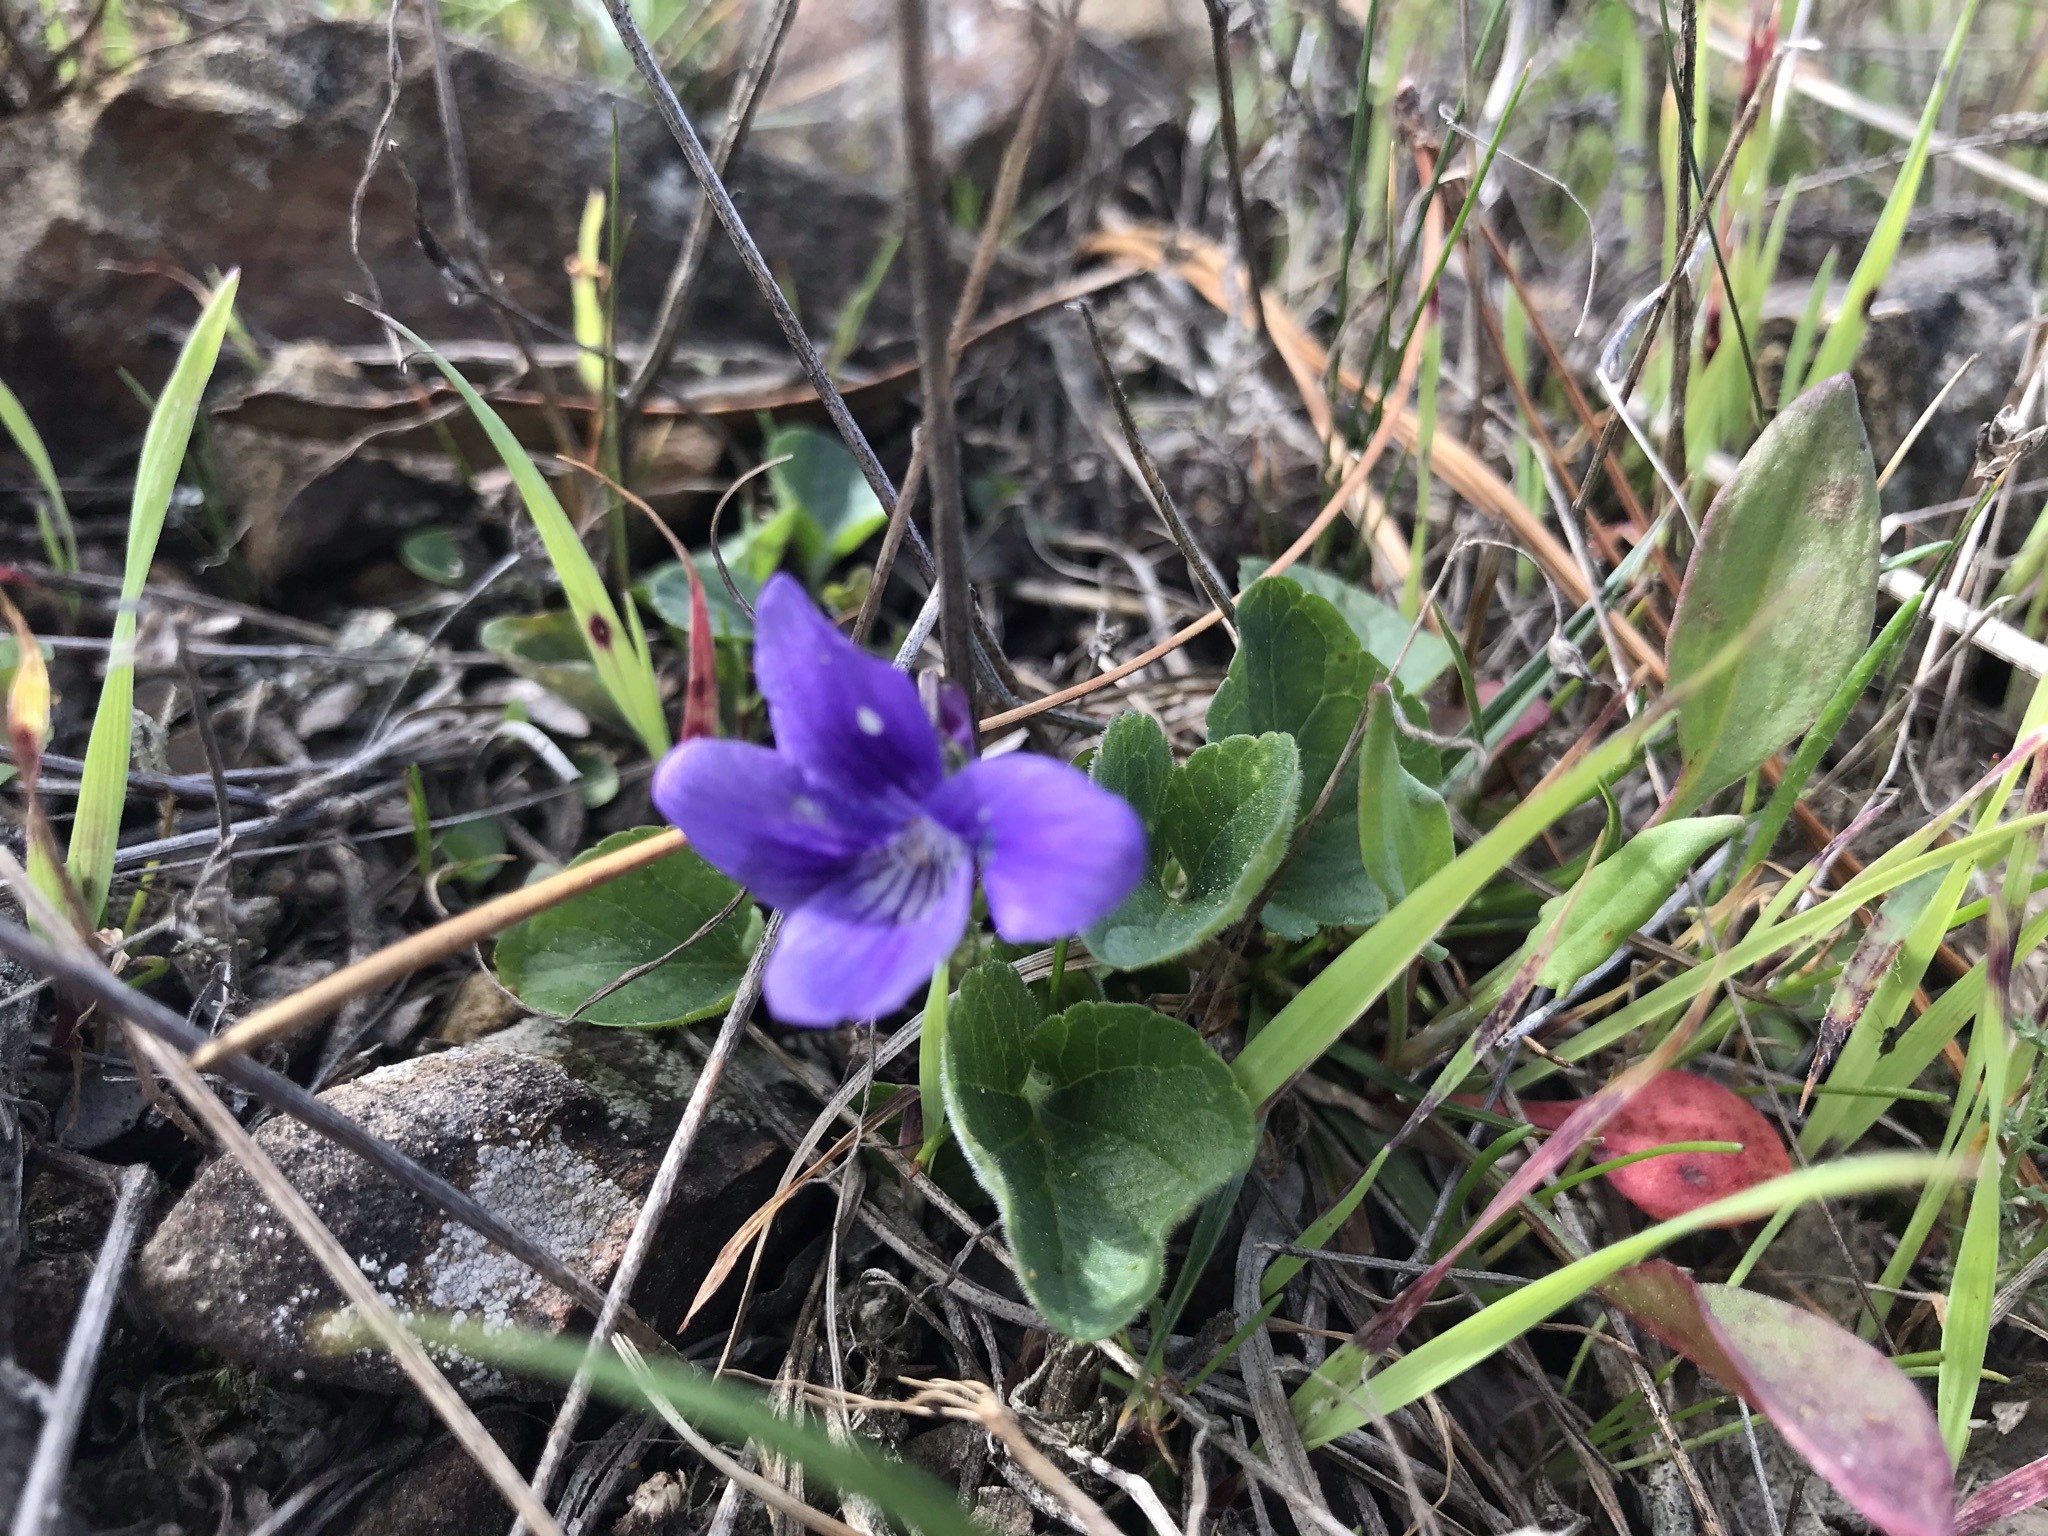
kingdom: Plantae
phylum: Tracheophyta
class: Magnoliopsida
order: Malpighiales
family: Violaceae
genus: Viola
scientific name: Viola adunca
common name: Sand violet
